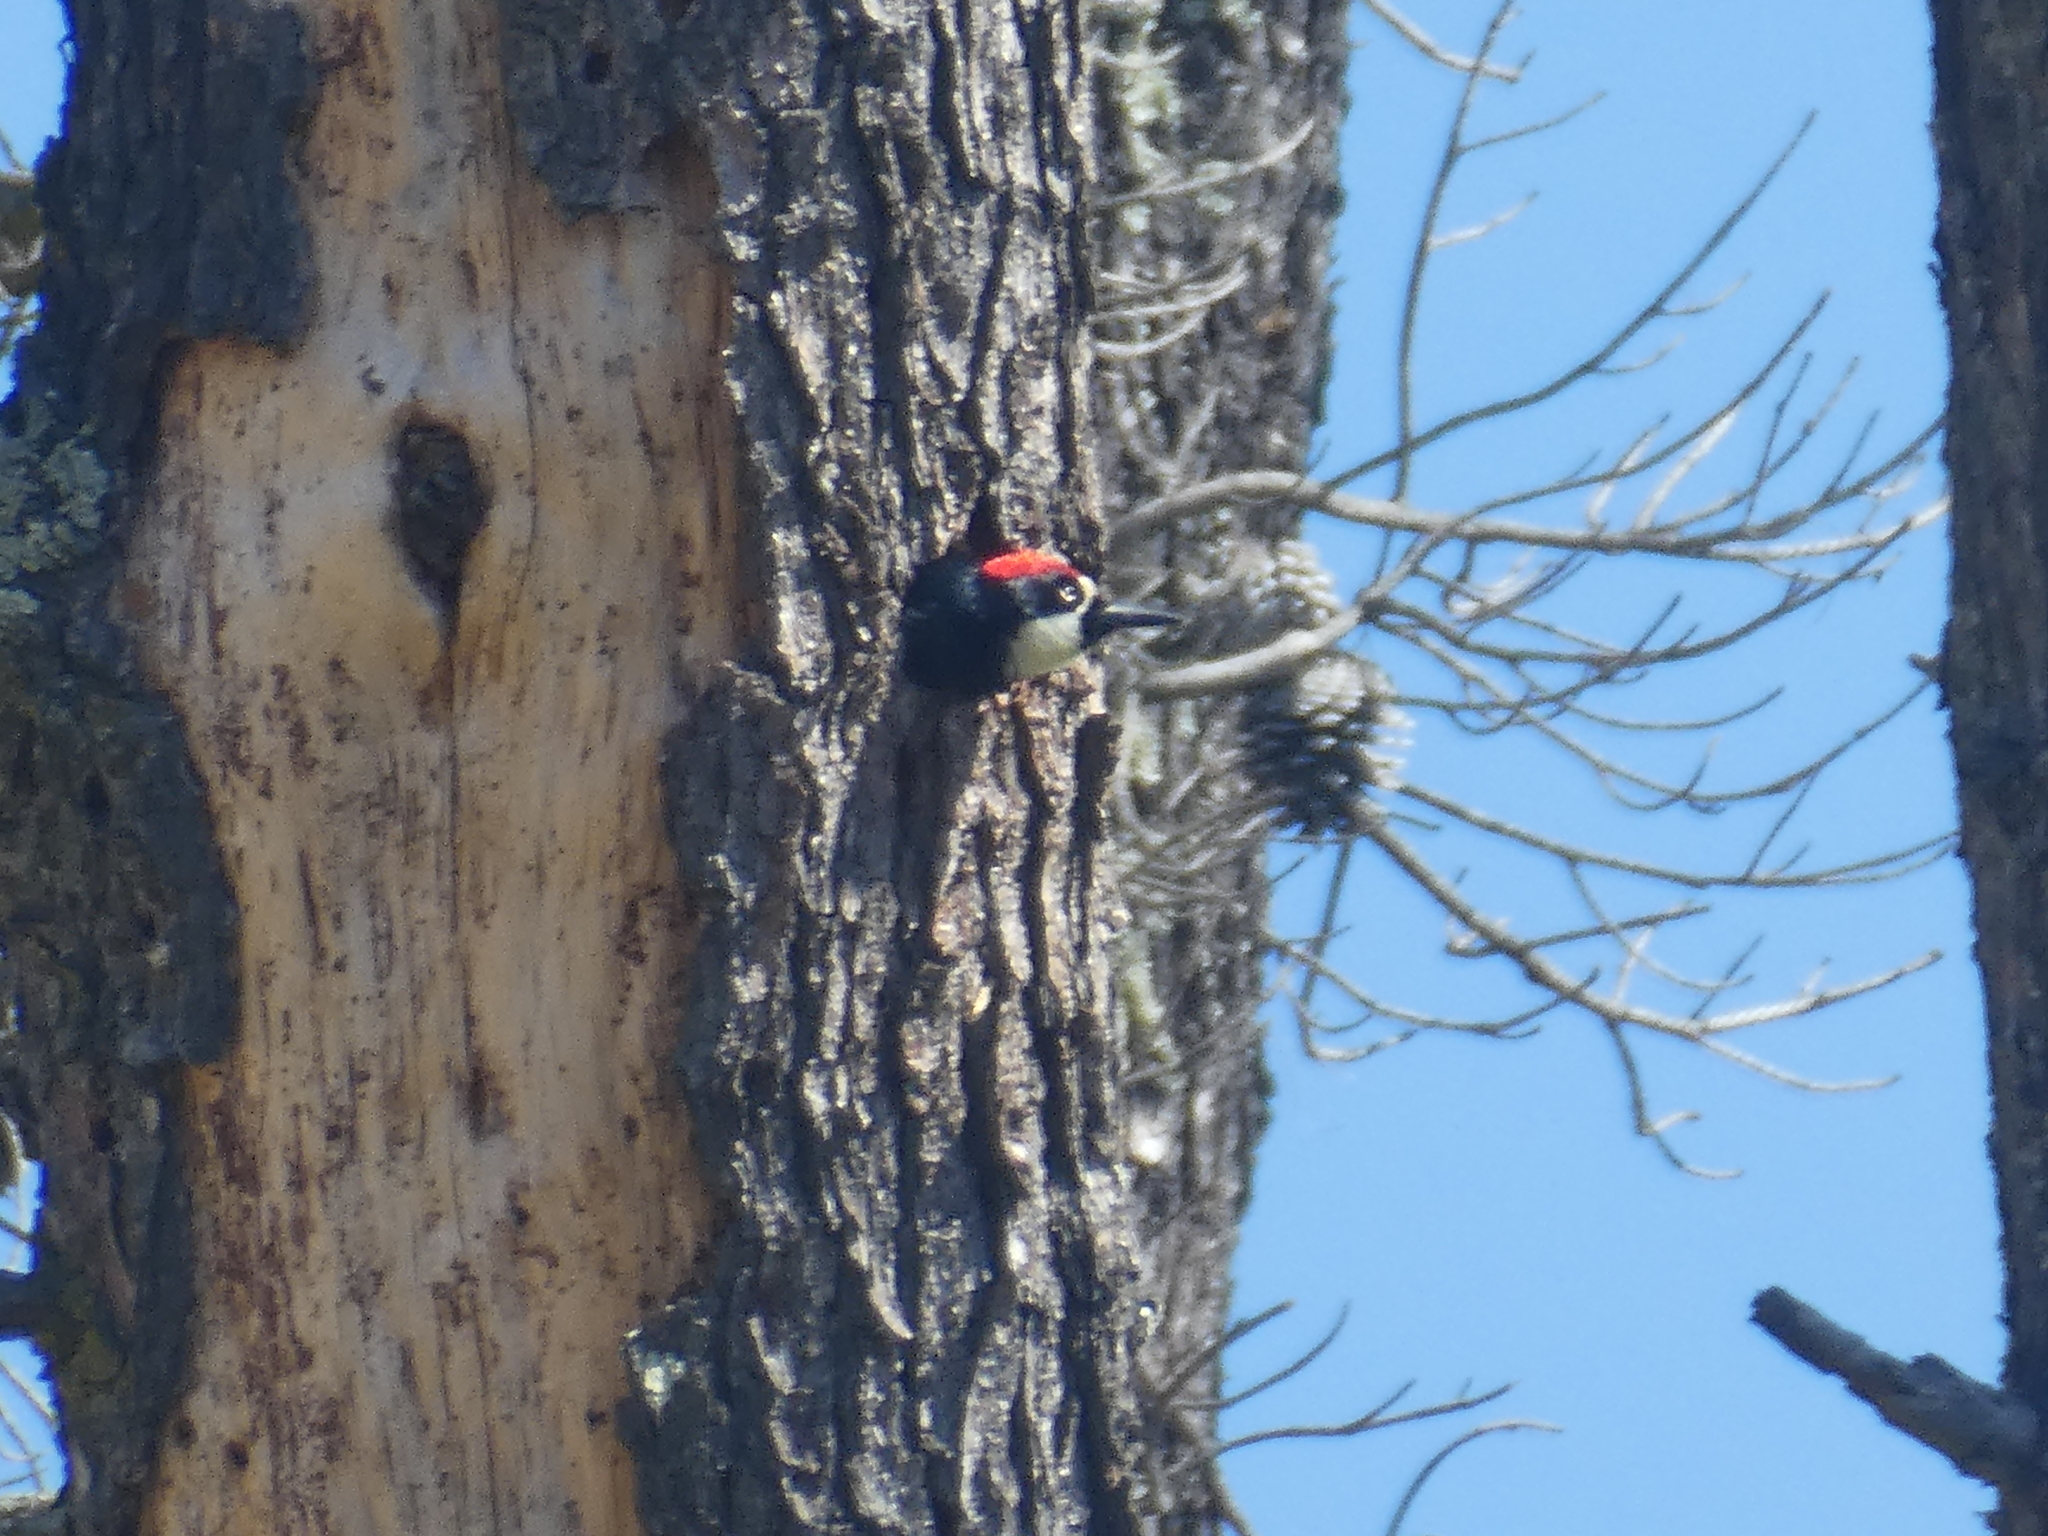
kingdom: Animalia
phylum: Chordata
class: Aves
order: Piciformes
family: Picidae
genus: Melanerpes
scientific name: Melanerpes formicivorus
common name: Acorn woodpecker
